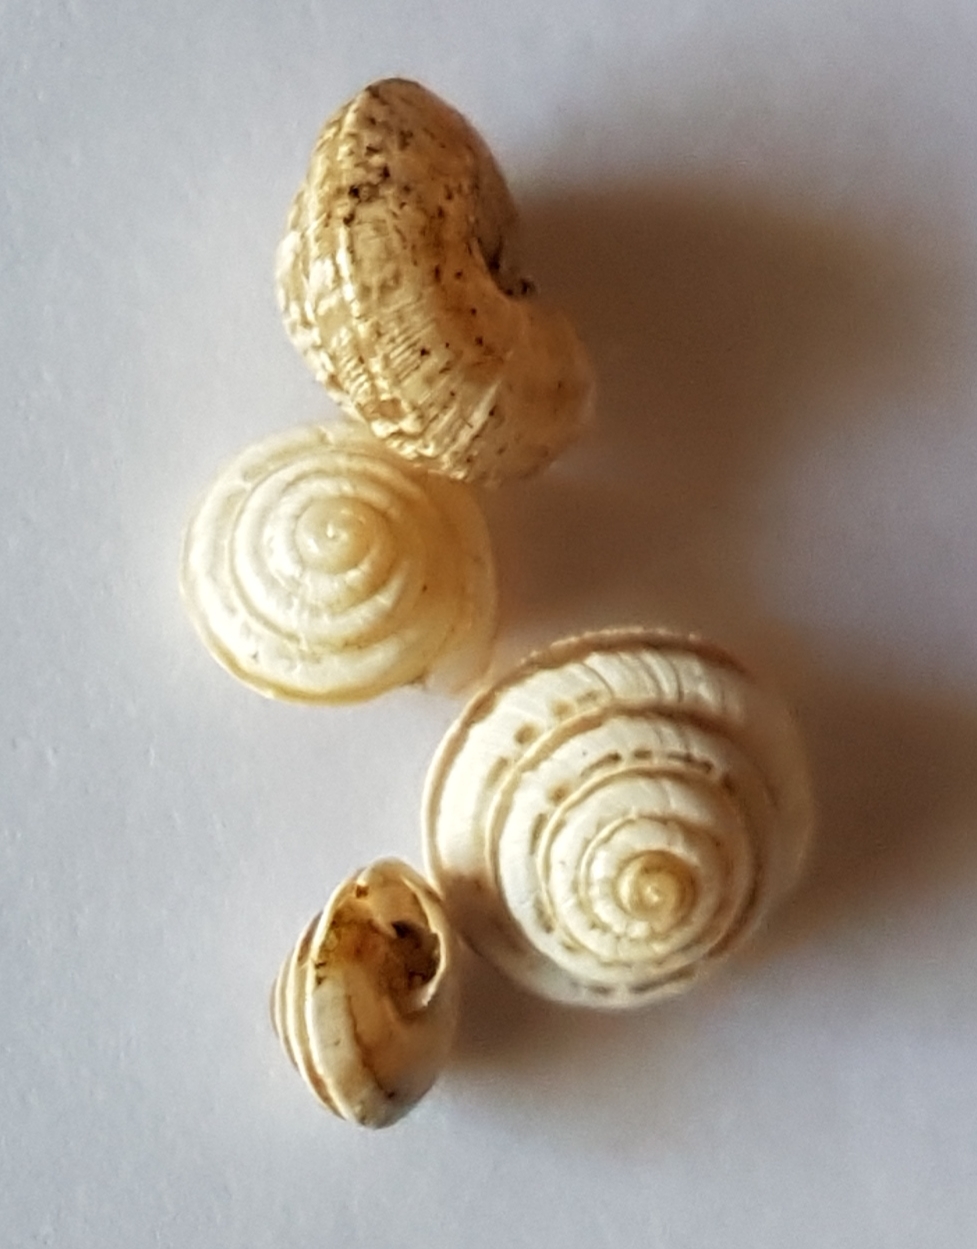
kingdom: Animalia
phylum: Mollusca
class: Gastropoda
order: Stylommatophora
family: Geomitridae
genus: Trochoidea
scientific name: Trochoidea trochoides
